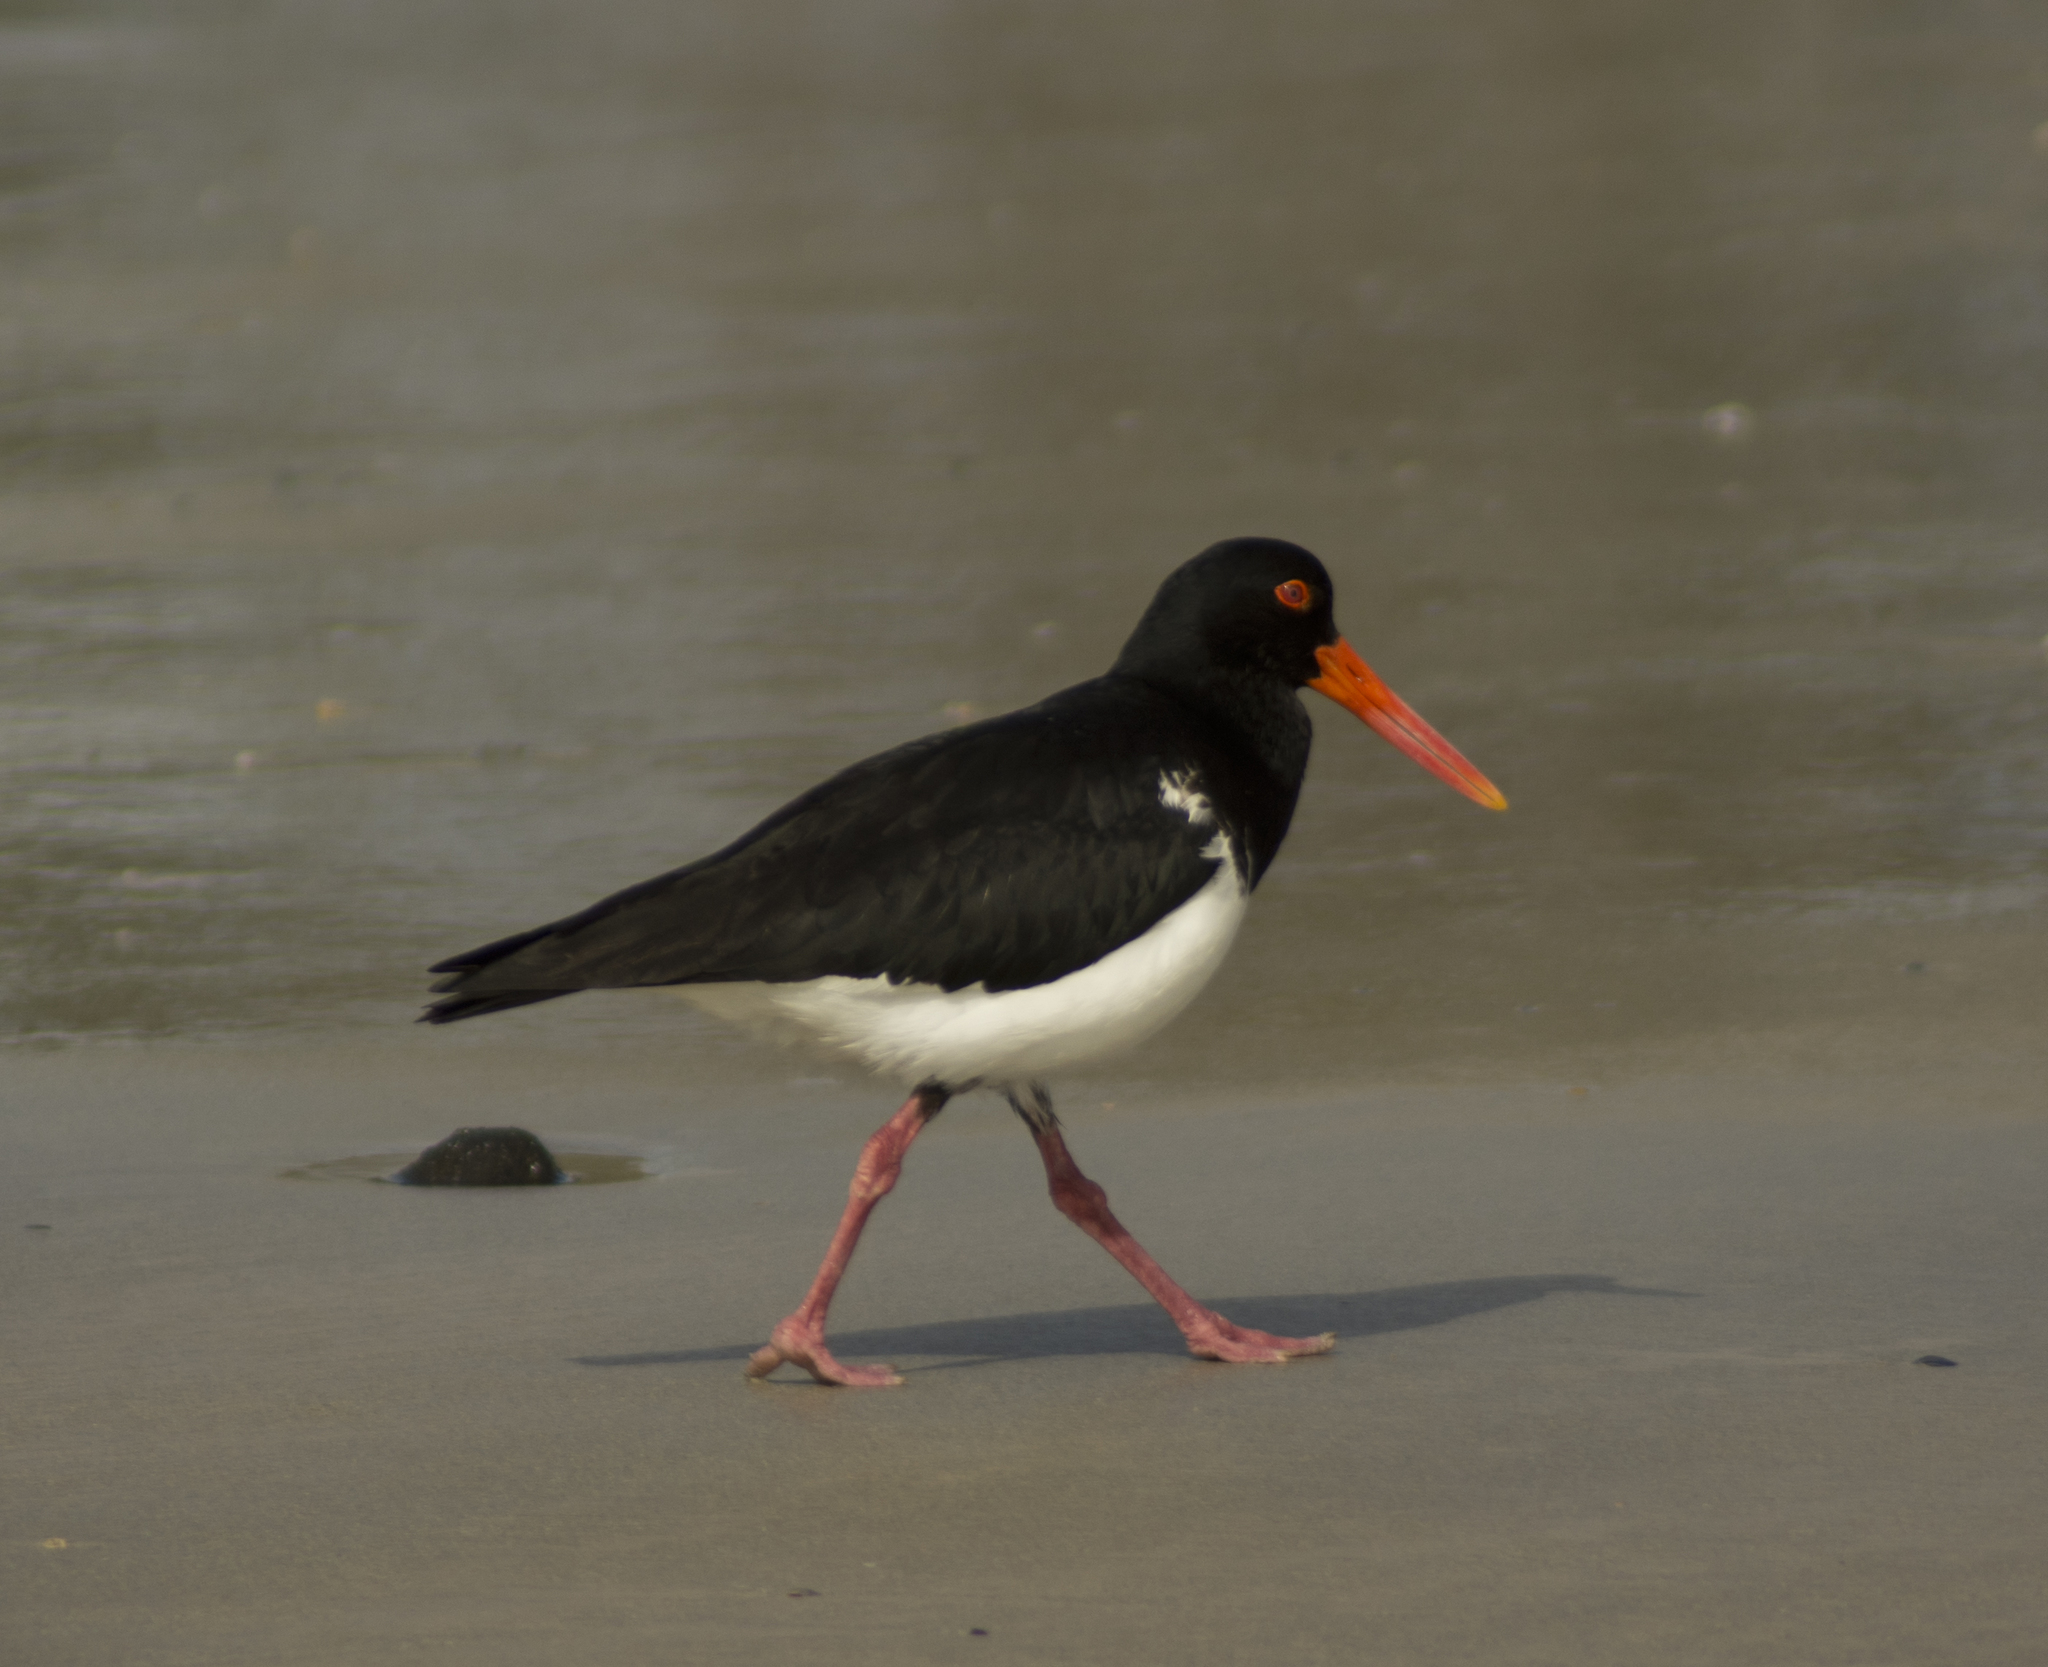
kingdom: Animalia
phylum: Chordata
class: Aves
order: Charadriiformes
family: Haematopodidae
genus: Haematopus
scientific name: Haematopus longirostris
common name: Pied oystercatcher
